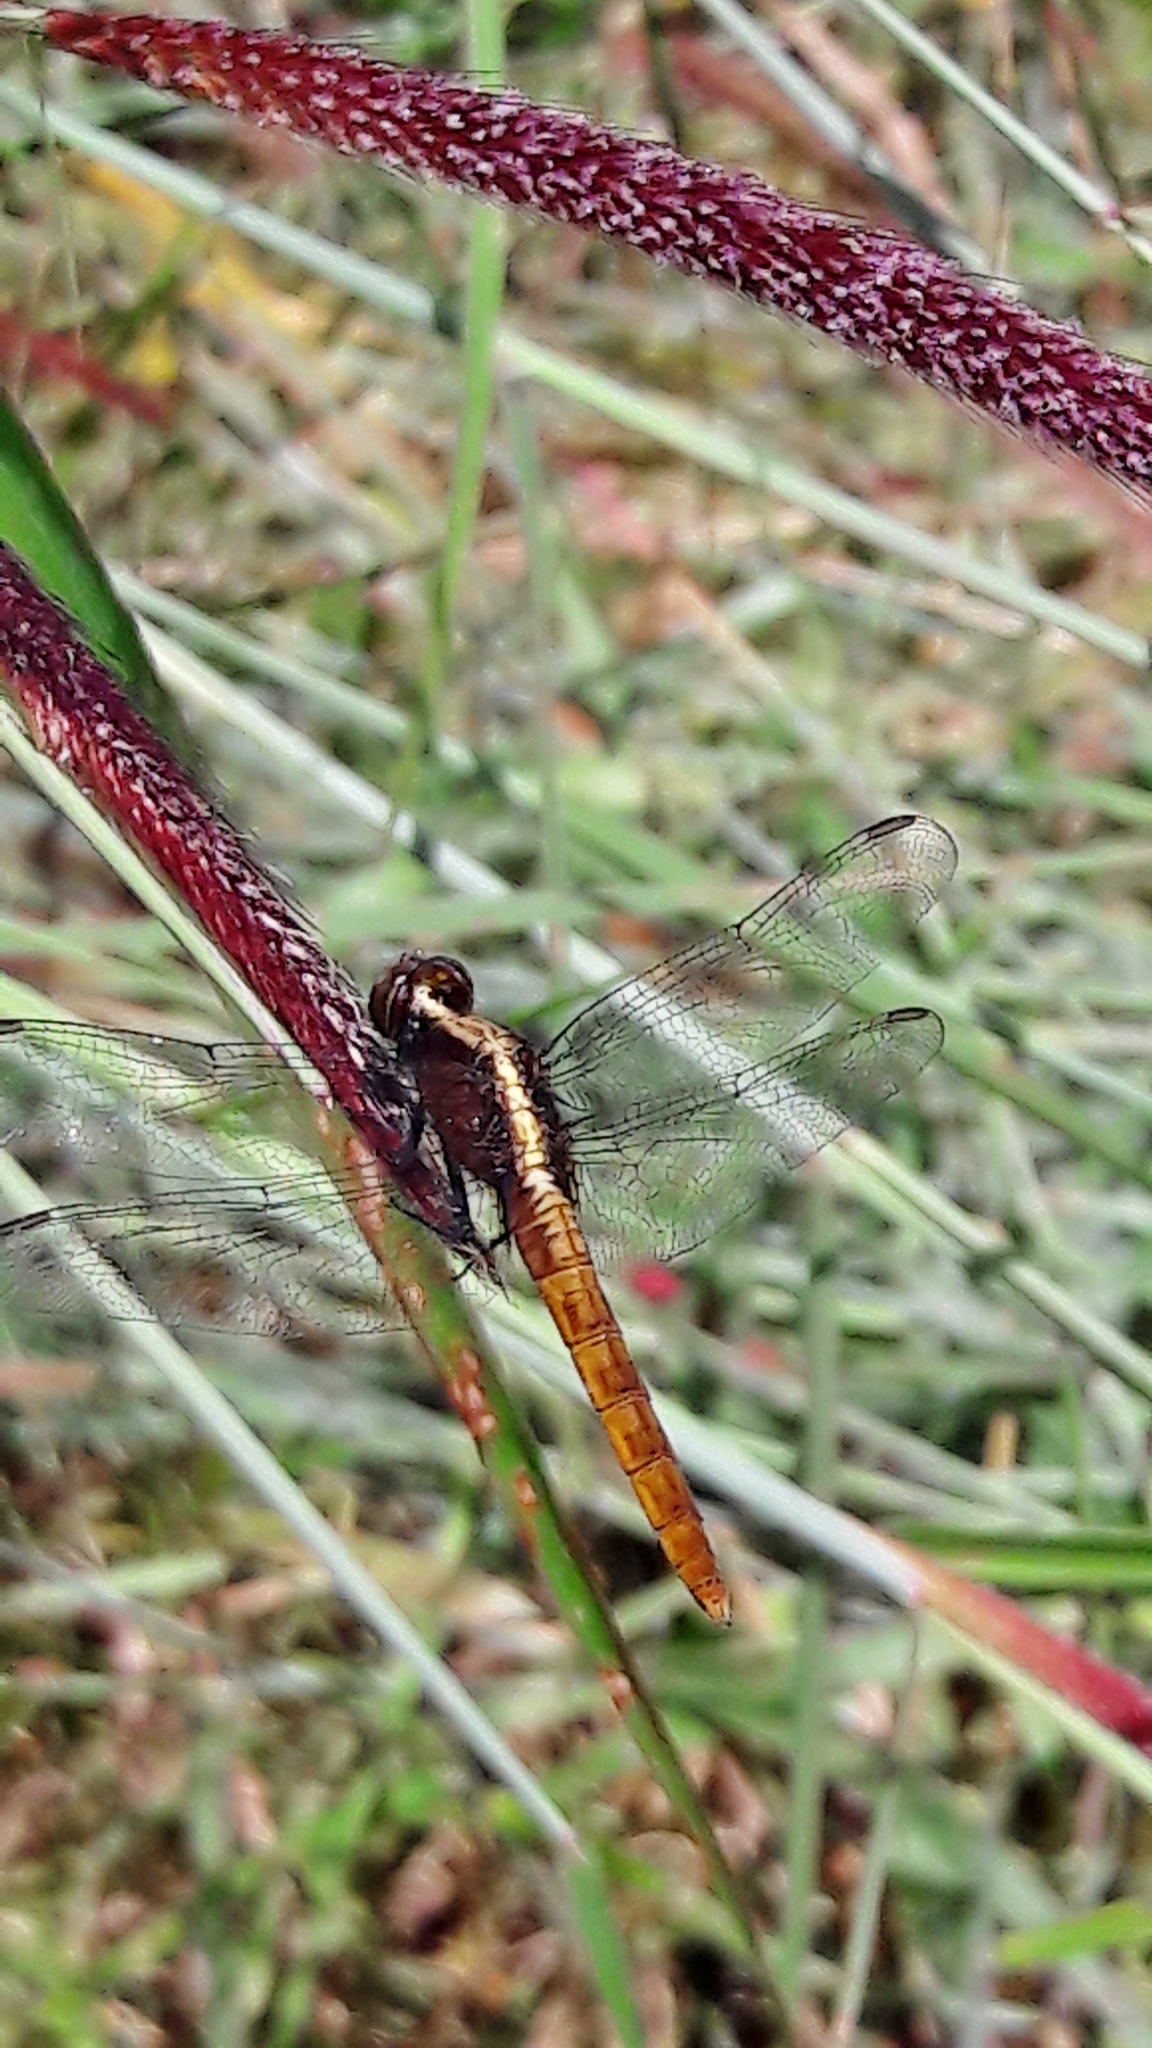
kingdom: Animalia
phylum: Arthropoda
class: Insecta
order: Odonata
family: Libellulidae
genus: Erythemis
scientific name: Erythemis peruviana
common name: Flame-tailed pondhawk
